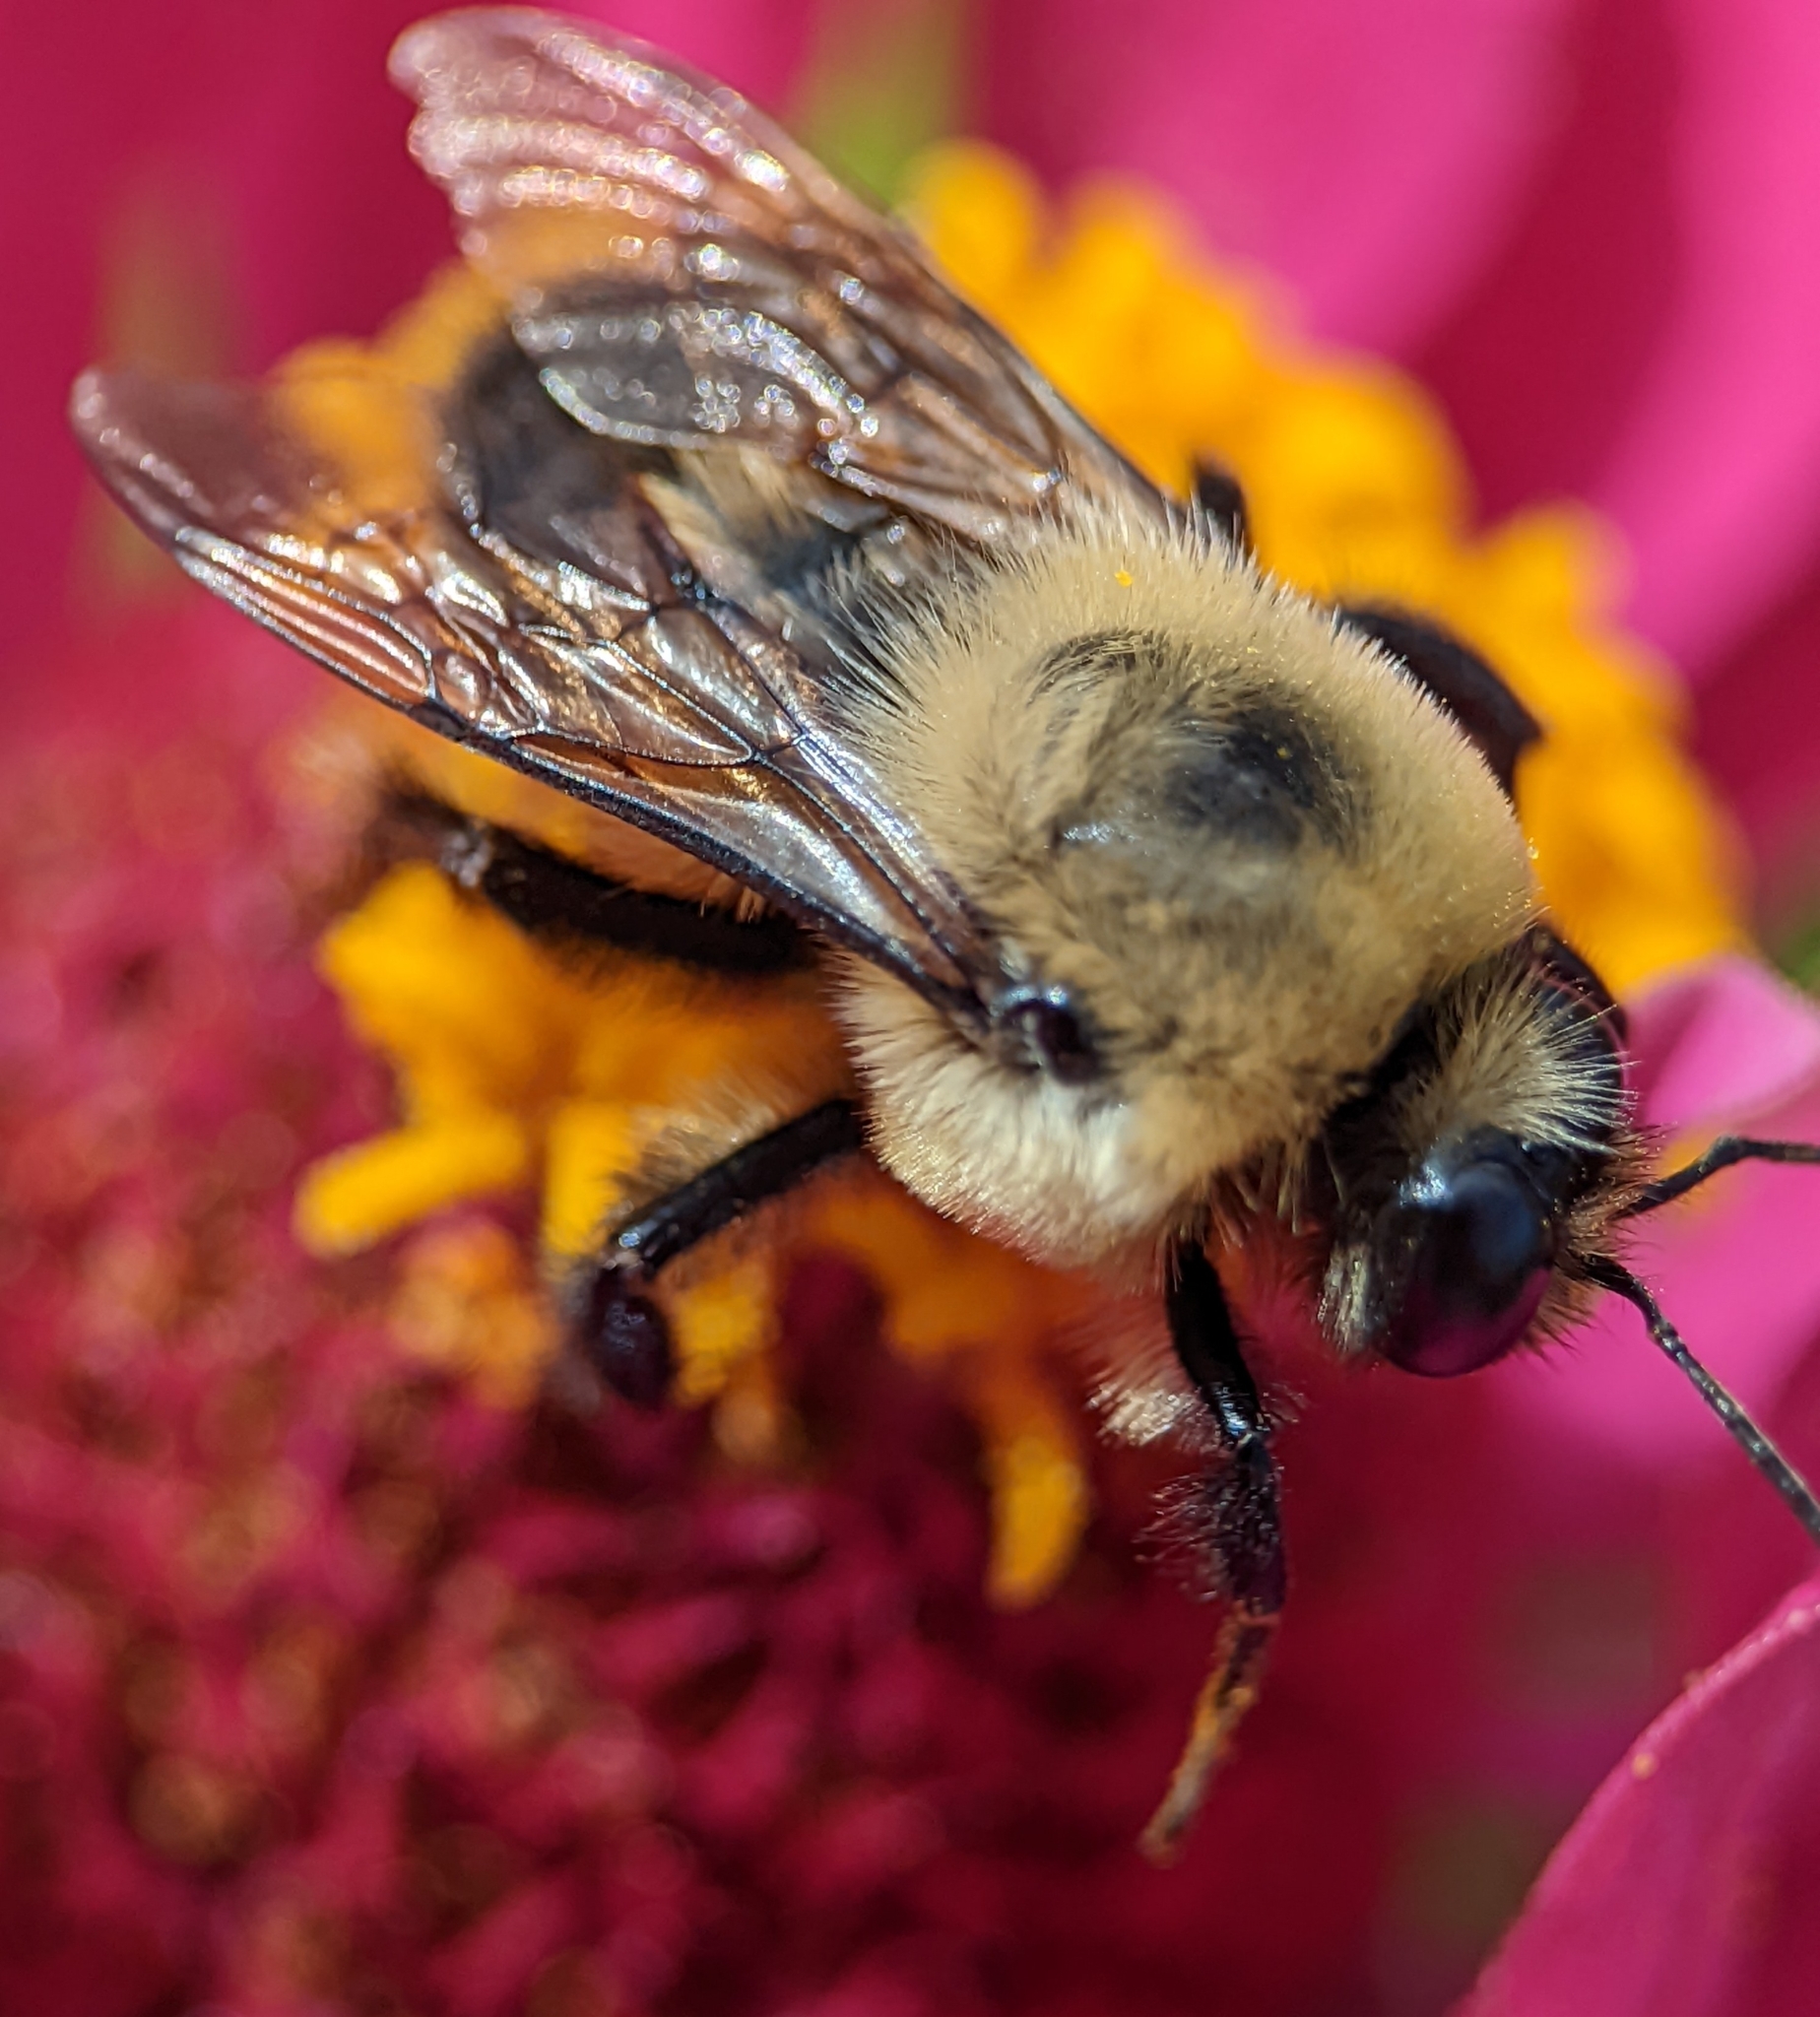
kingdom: Animalia
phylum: Arthropoda
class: Insecta
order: Hymenoptera
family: Apidae
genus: Bombus
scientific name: Bombus griseocollis
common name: Brown-belted bumble bee
